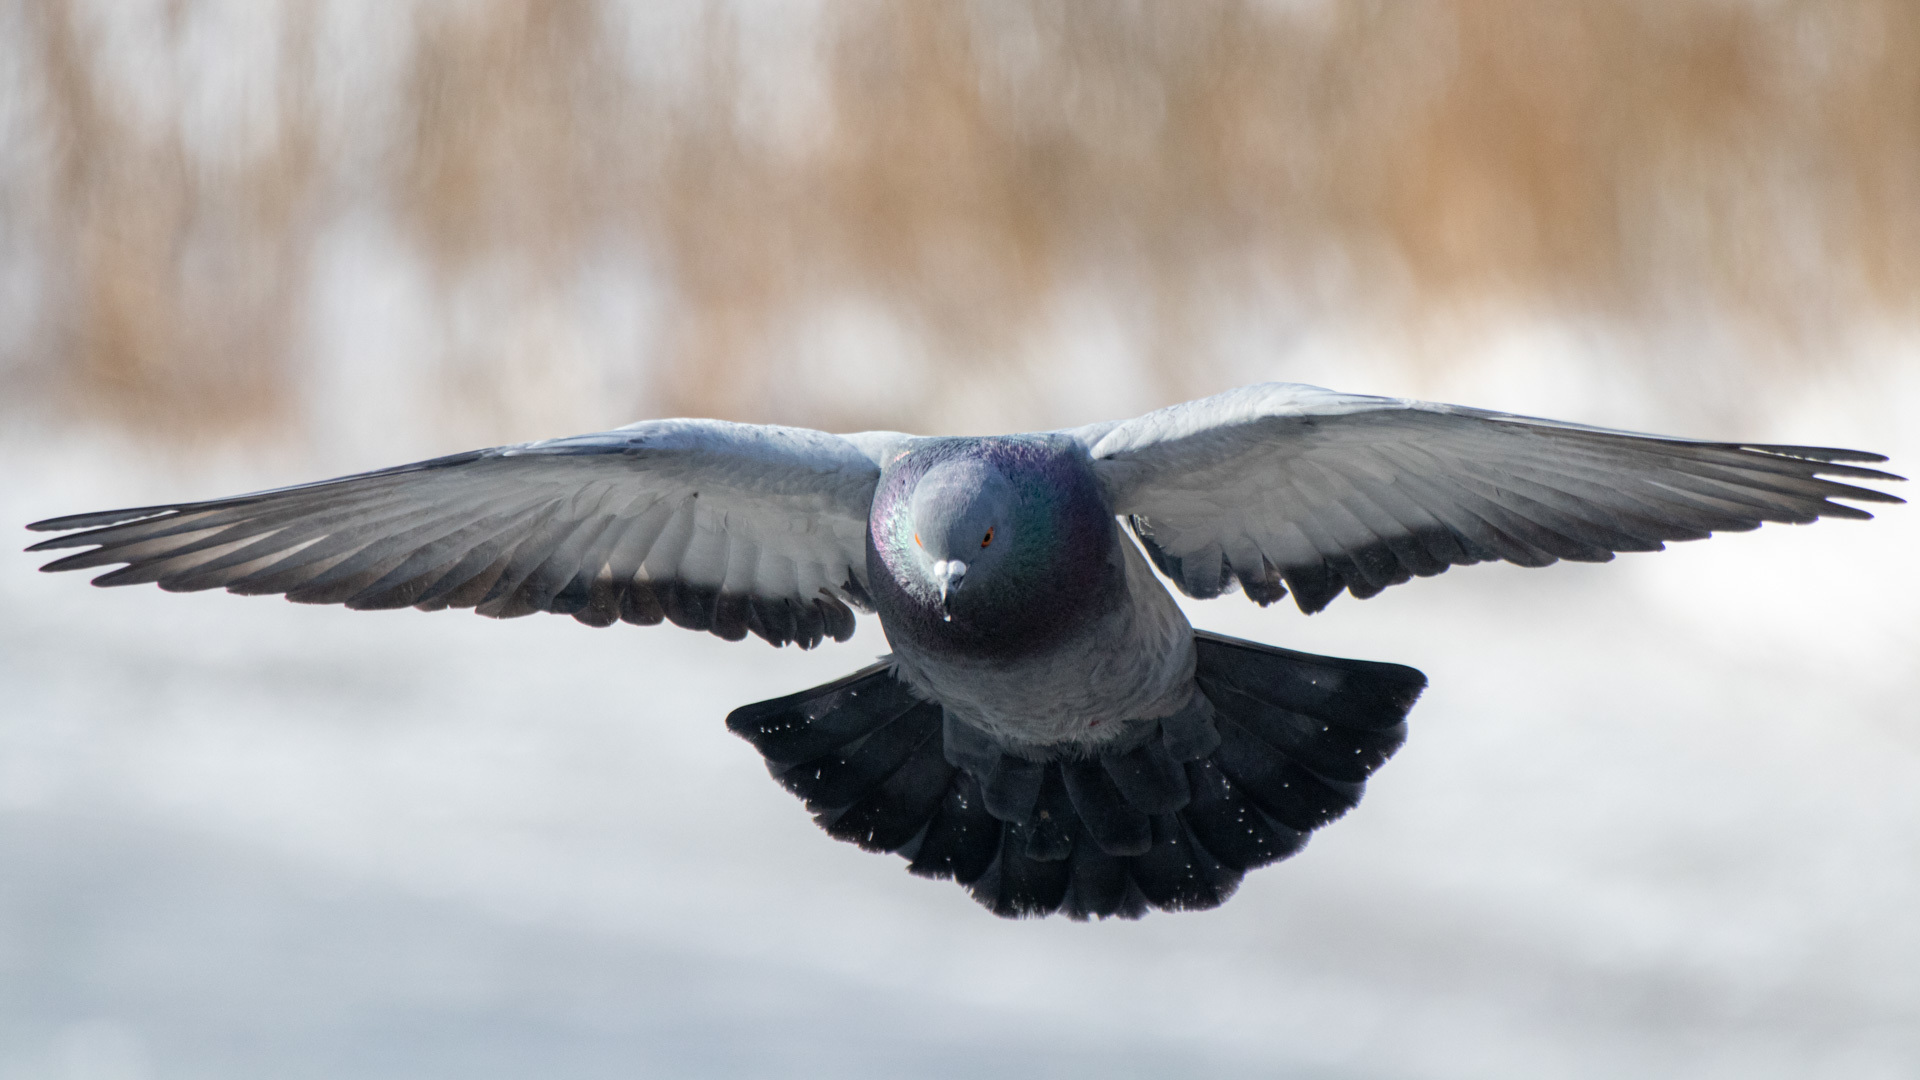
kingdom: Animalia
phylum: Chordata
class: Aves
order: Columbiformes
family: Columbidae
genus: Columba
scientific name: Columba livia
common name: Rock pigeon
